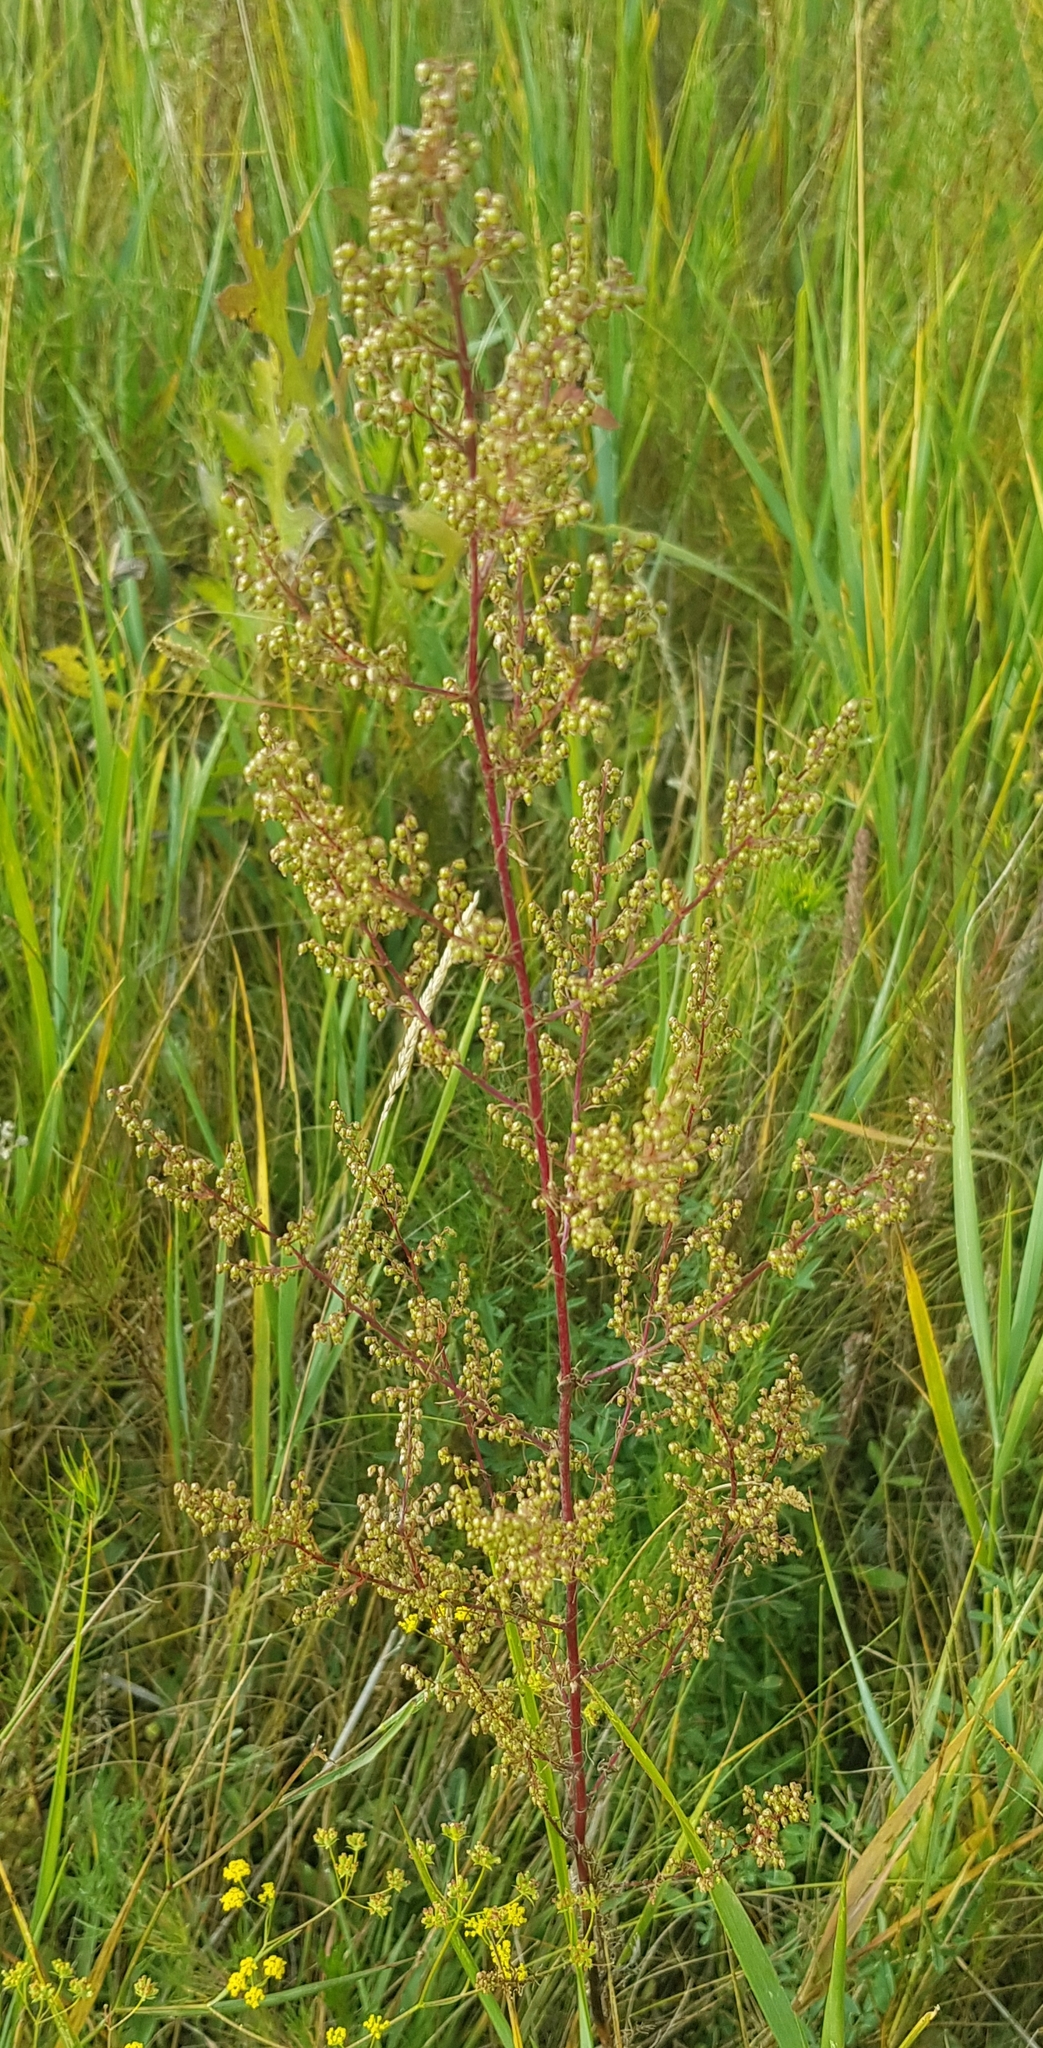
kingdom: Plantae
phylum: Tracheophyta
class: Magnoliopsida
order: Asterales
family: Asteraceae
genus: Artemisia
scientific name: Artemisia scoparia
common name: Redstem wormwood
